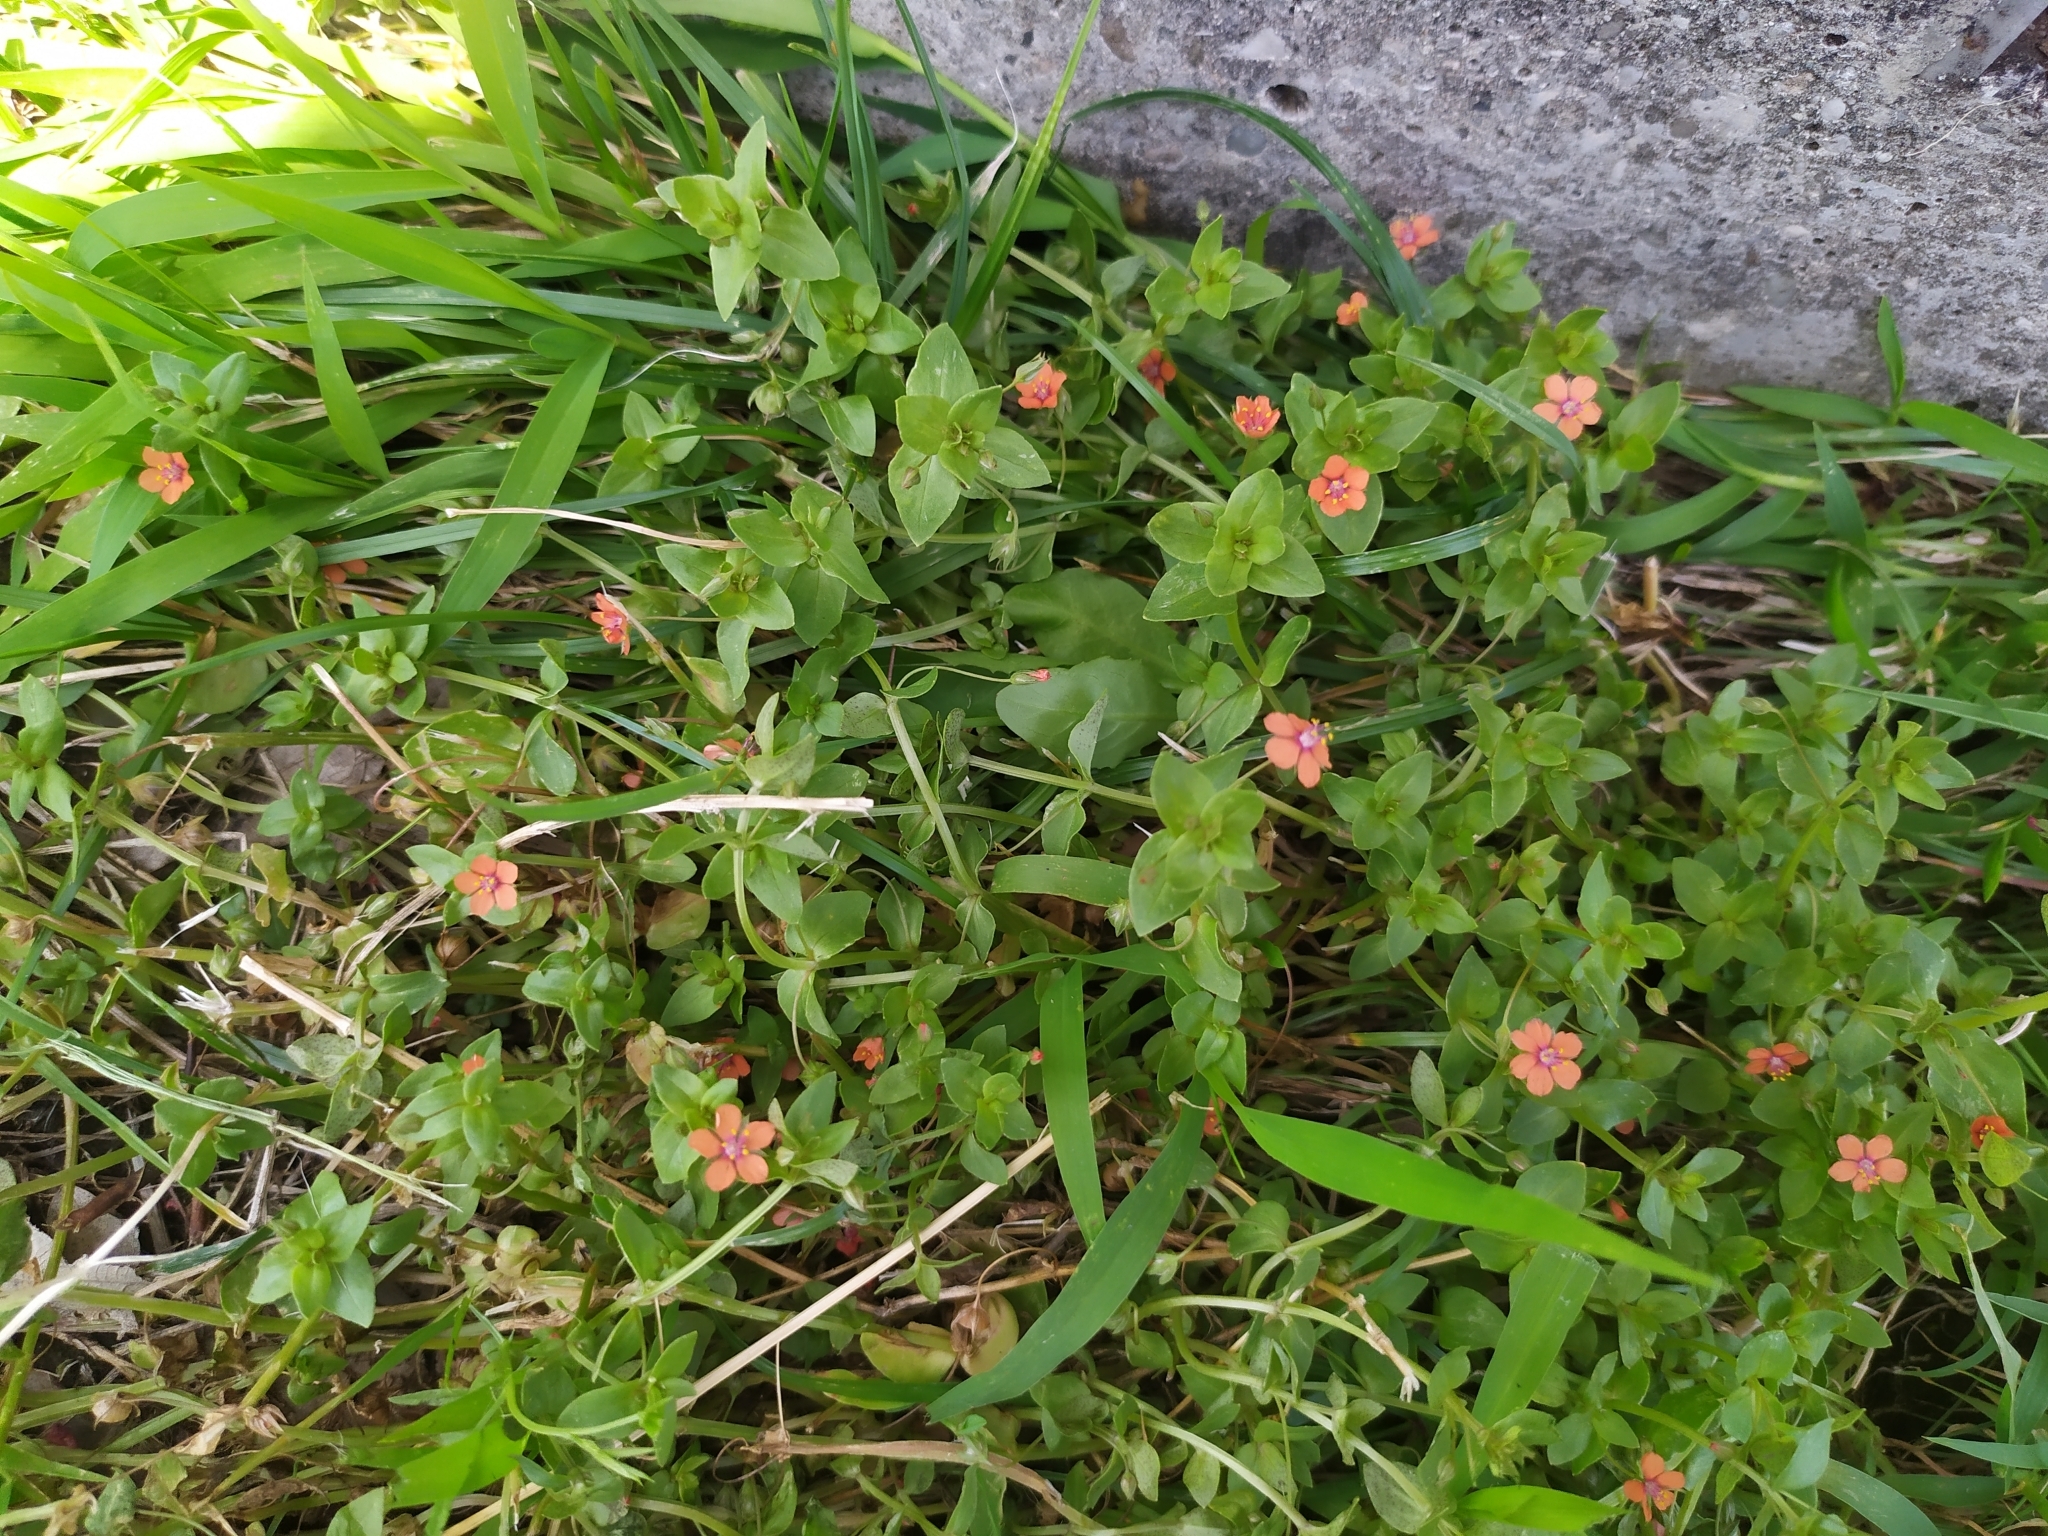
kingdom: Plantae
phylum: Tracheophyta
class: Magnoliopsida
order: Ericales
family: Primulaceae
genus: Lysimachia
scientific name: Lysimachia arvensis
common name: Scarlet pimpernel
